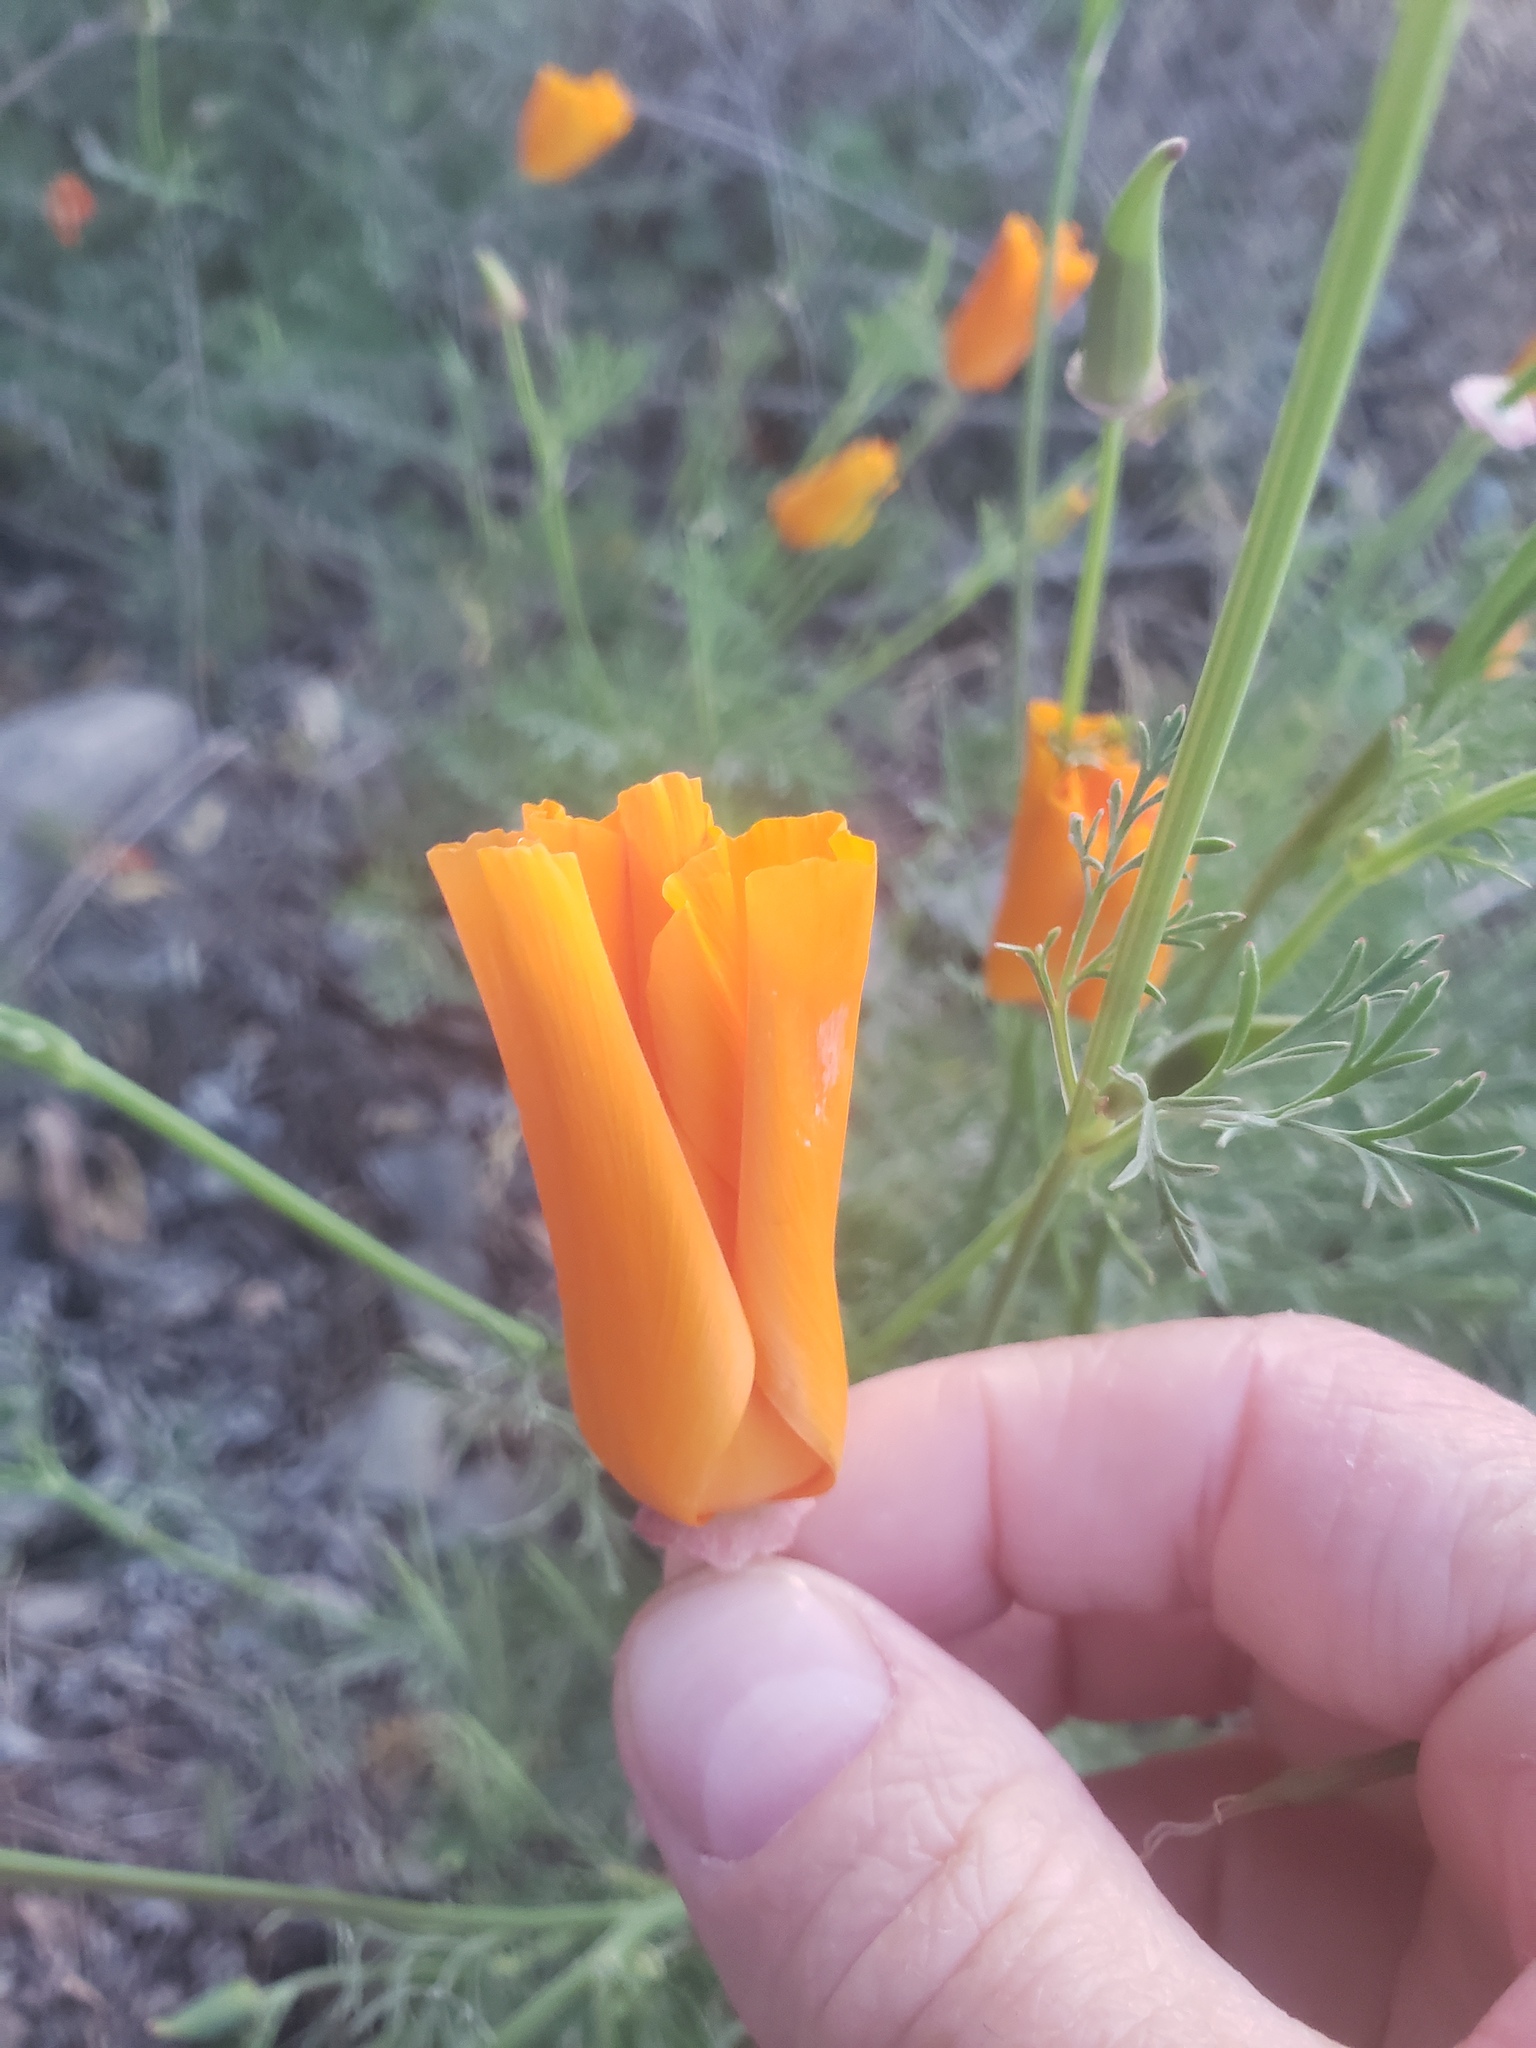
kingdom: Plantae
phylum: Tracheophyta
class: Magnoliopsida
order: Ranunculales
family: Papaveraceae
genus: Eschscholzia
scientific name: Eschscholzia californica
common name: California poppy
